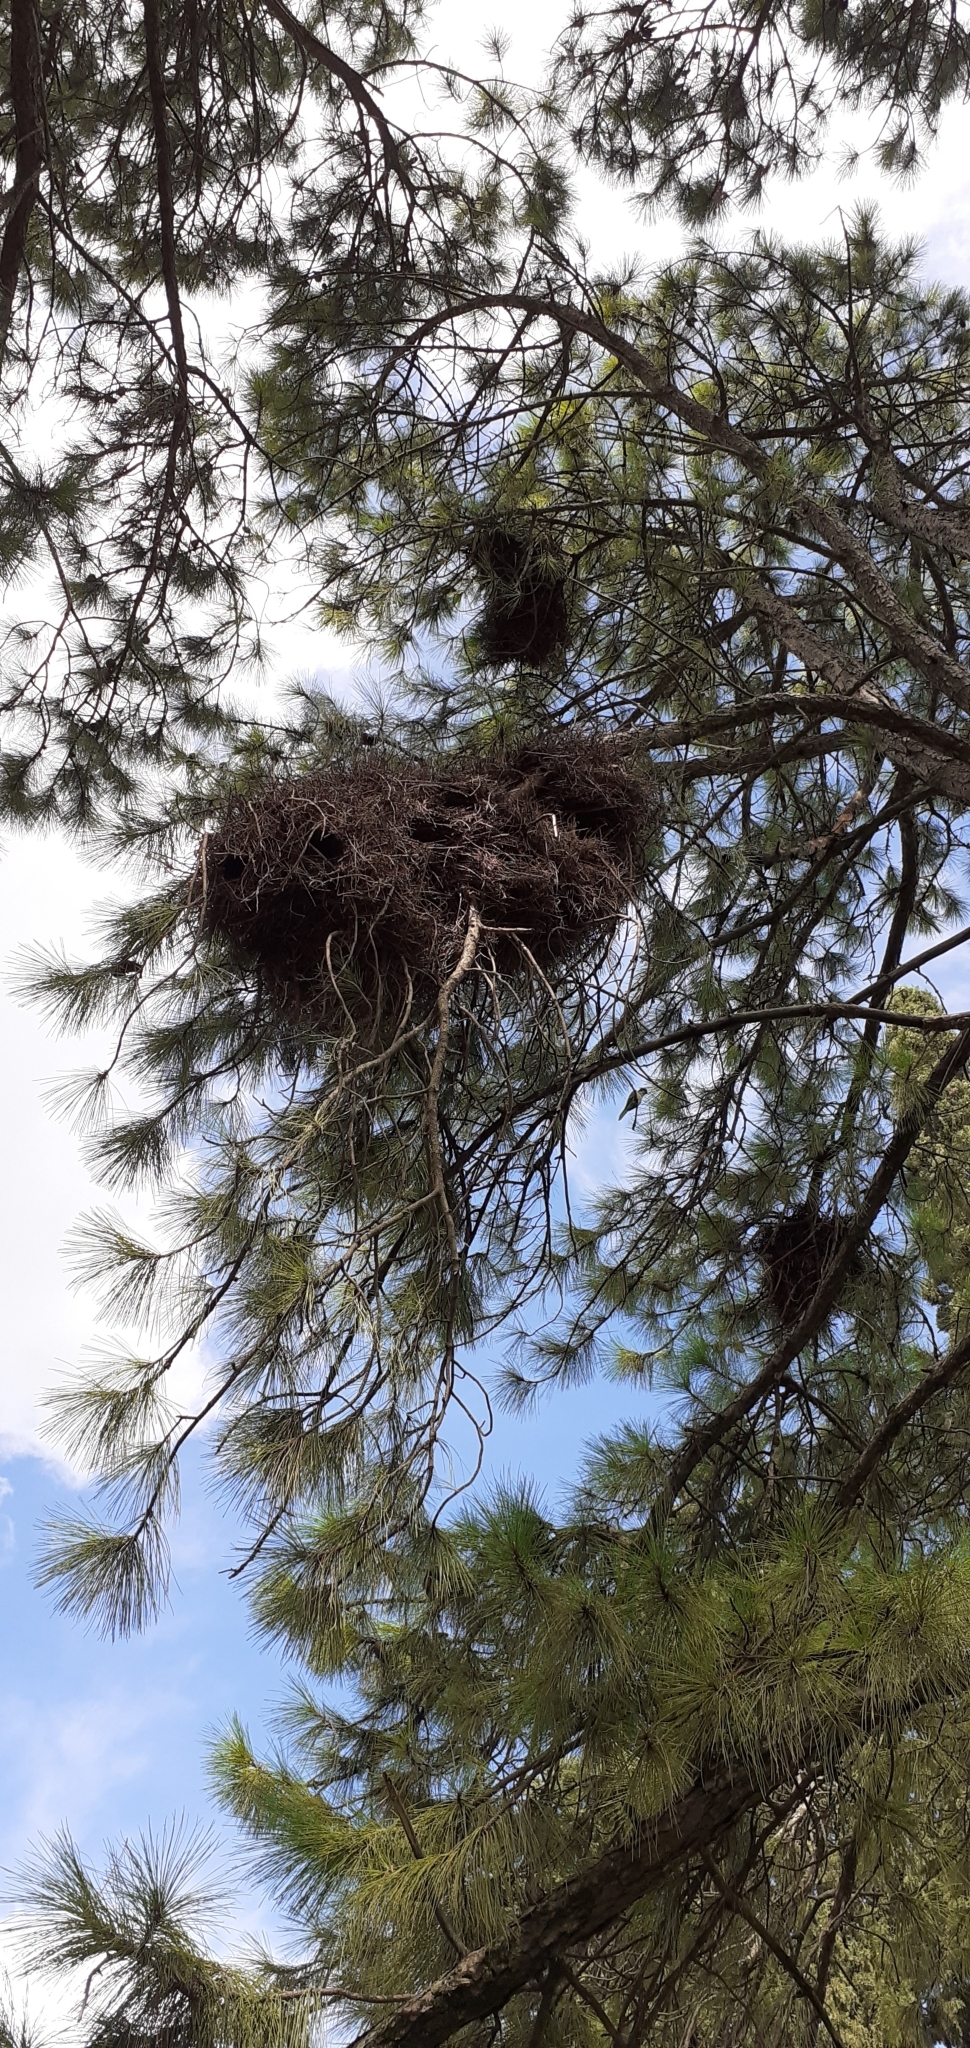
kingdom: Animalia
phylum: Chordata
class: Aves
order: Psittaciformes
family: Psittacidae
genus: Myiopsitta
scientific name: Myiopsitta monachus
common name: Monk parakeet
